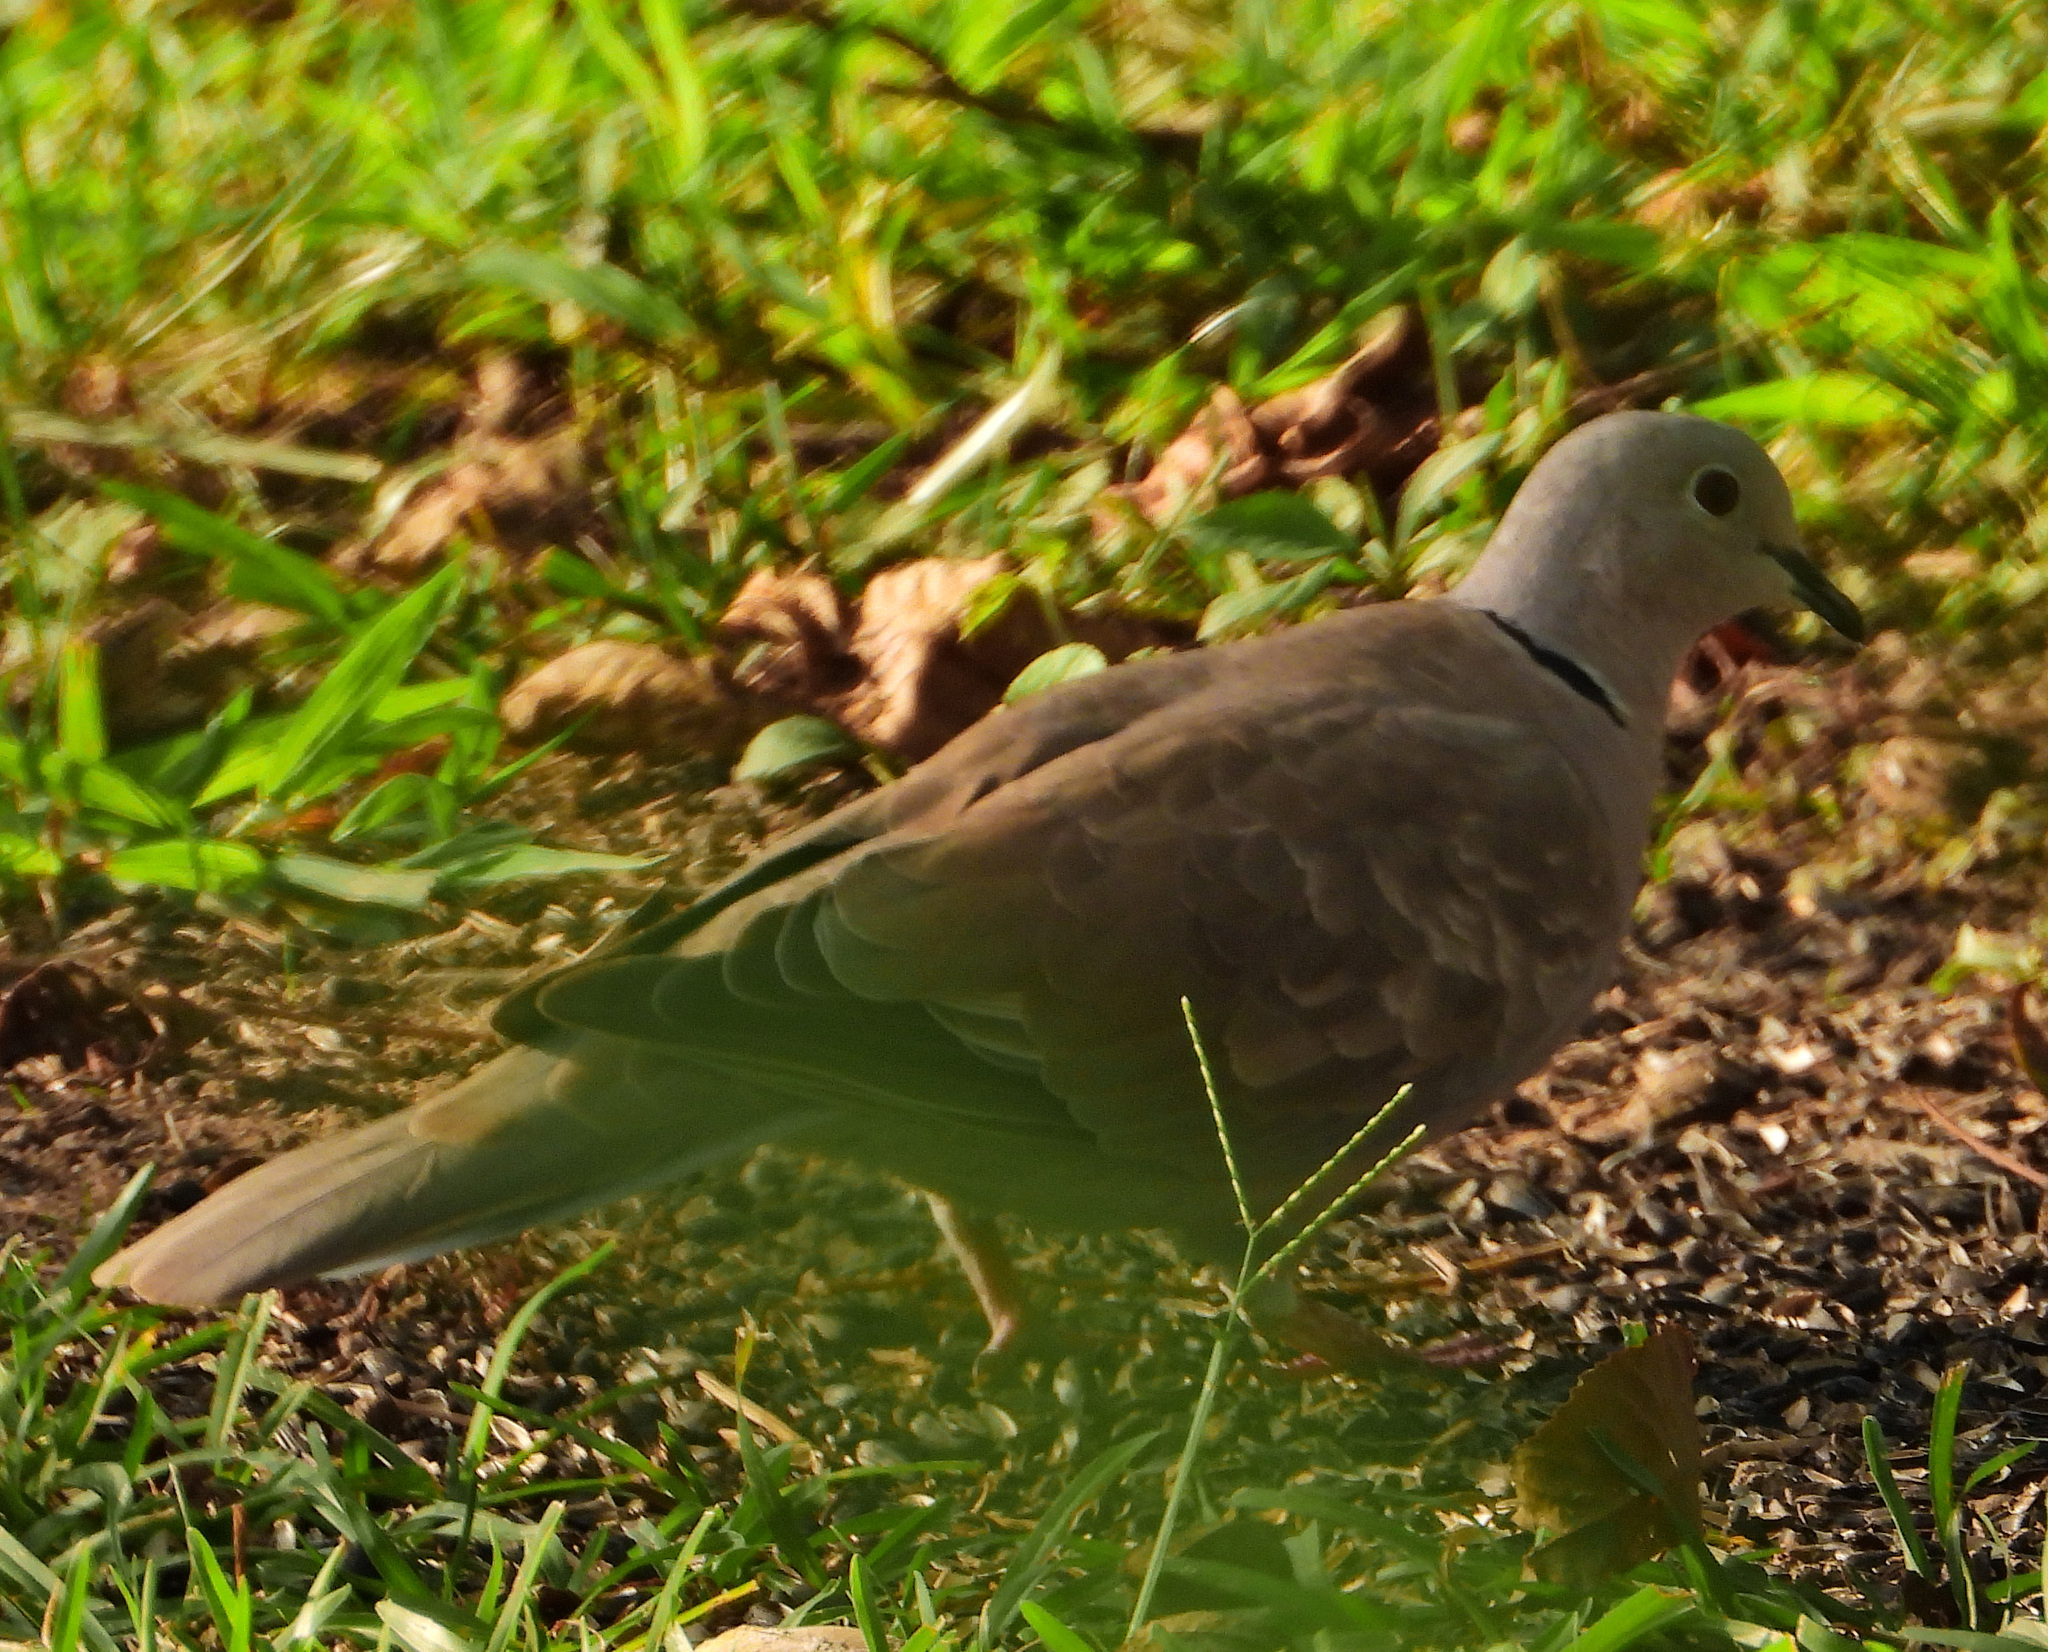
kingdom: Animalia
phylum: Chordata
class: Aves
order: Columbiformes
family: Columbidae
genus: Streptopelia
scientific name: Streptopelia decaocto
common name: Eurasian collared dove
